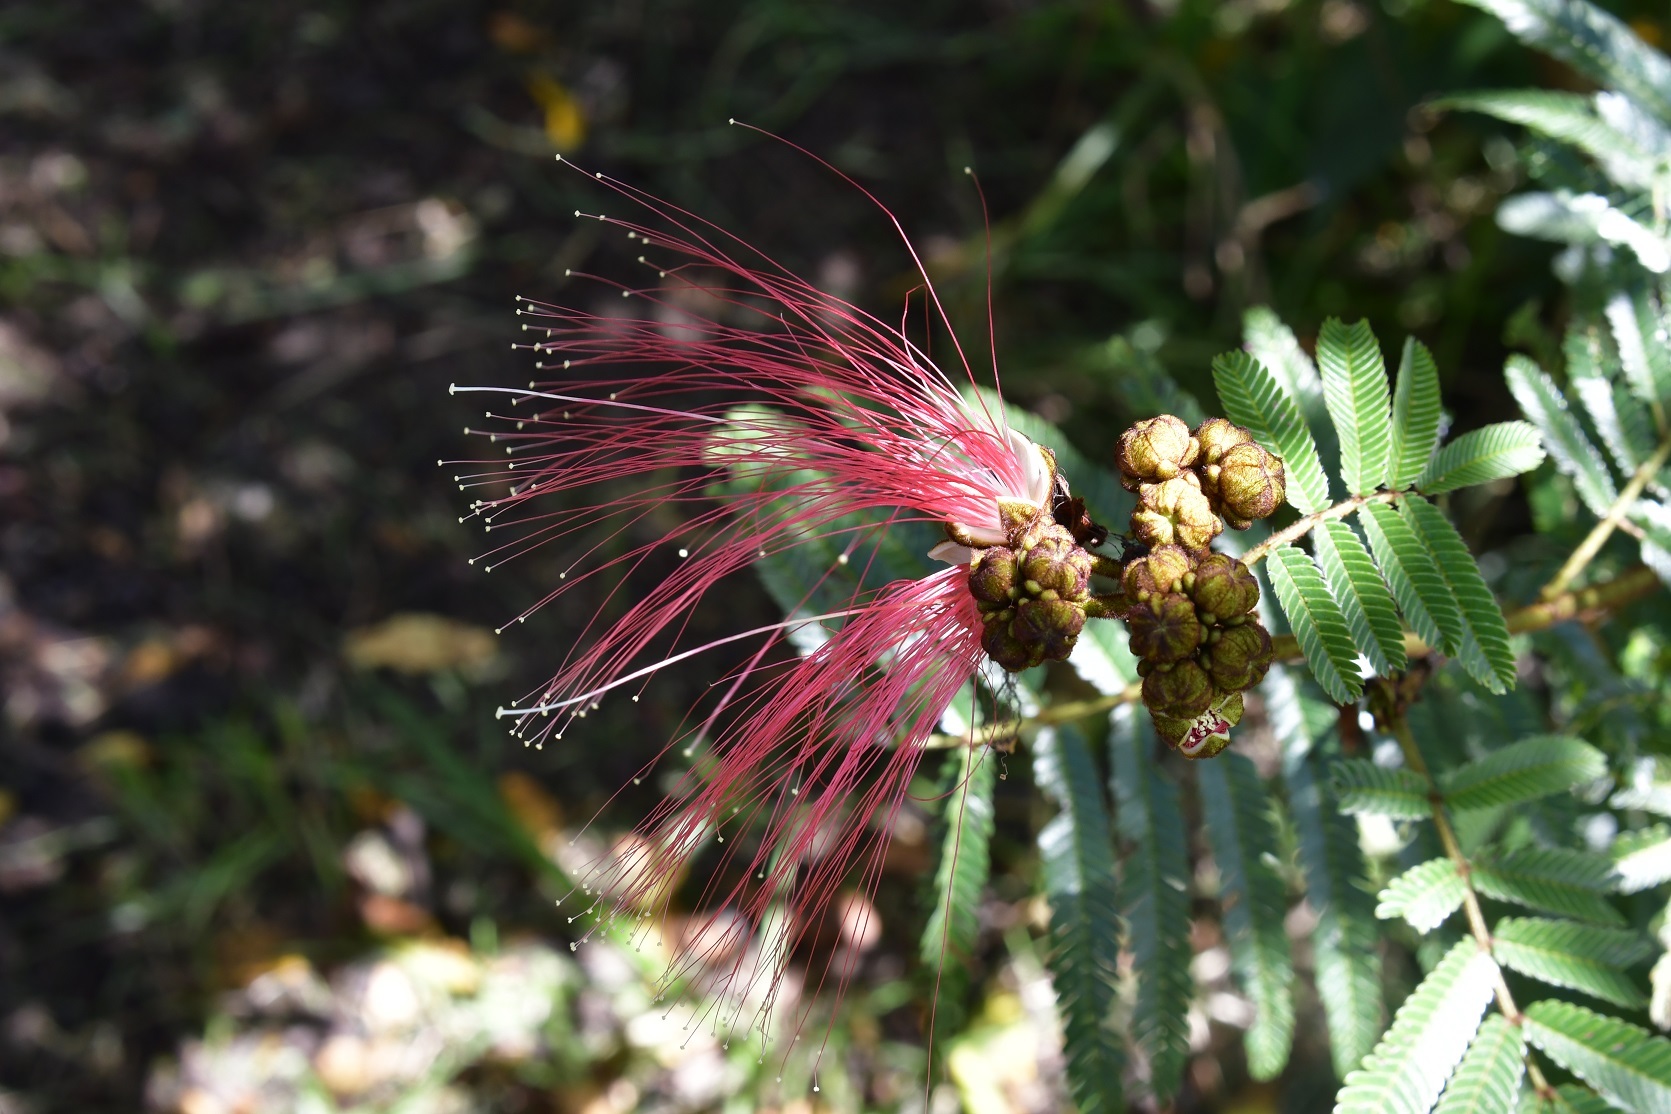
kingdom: Plantae
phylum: Tracheophyta
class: Magnoliopsida
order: Fabales
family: Fabaceae
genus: Calliandra
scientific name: Calliandra houstoniana
